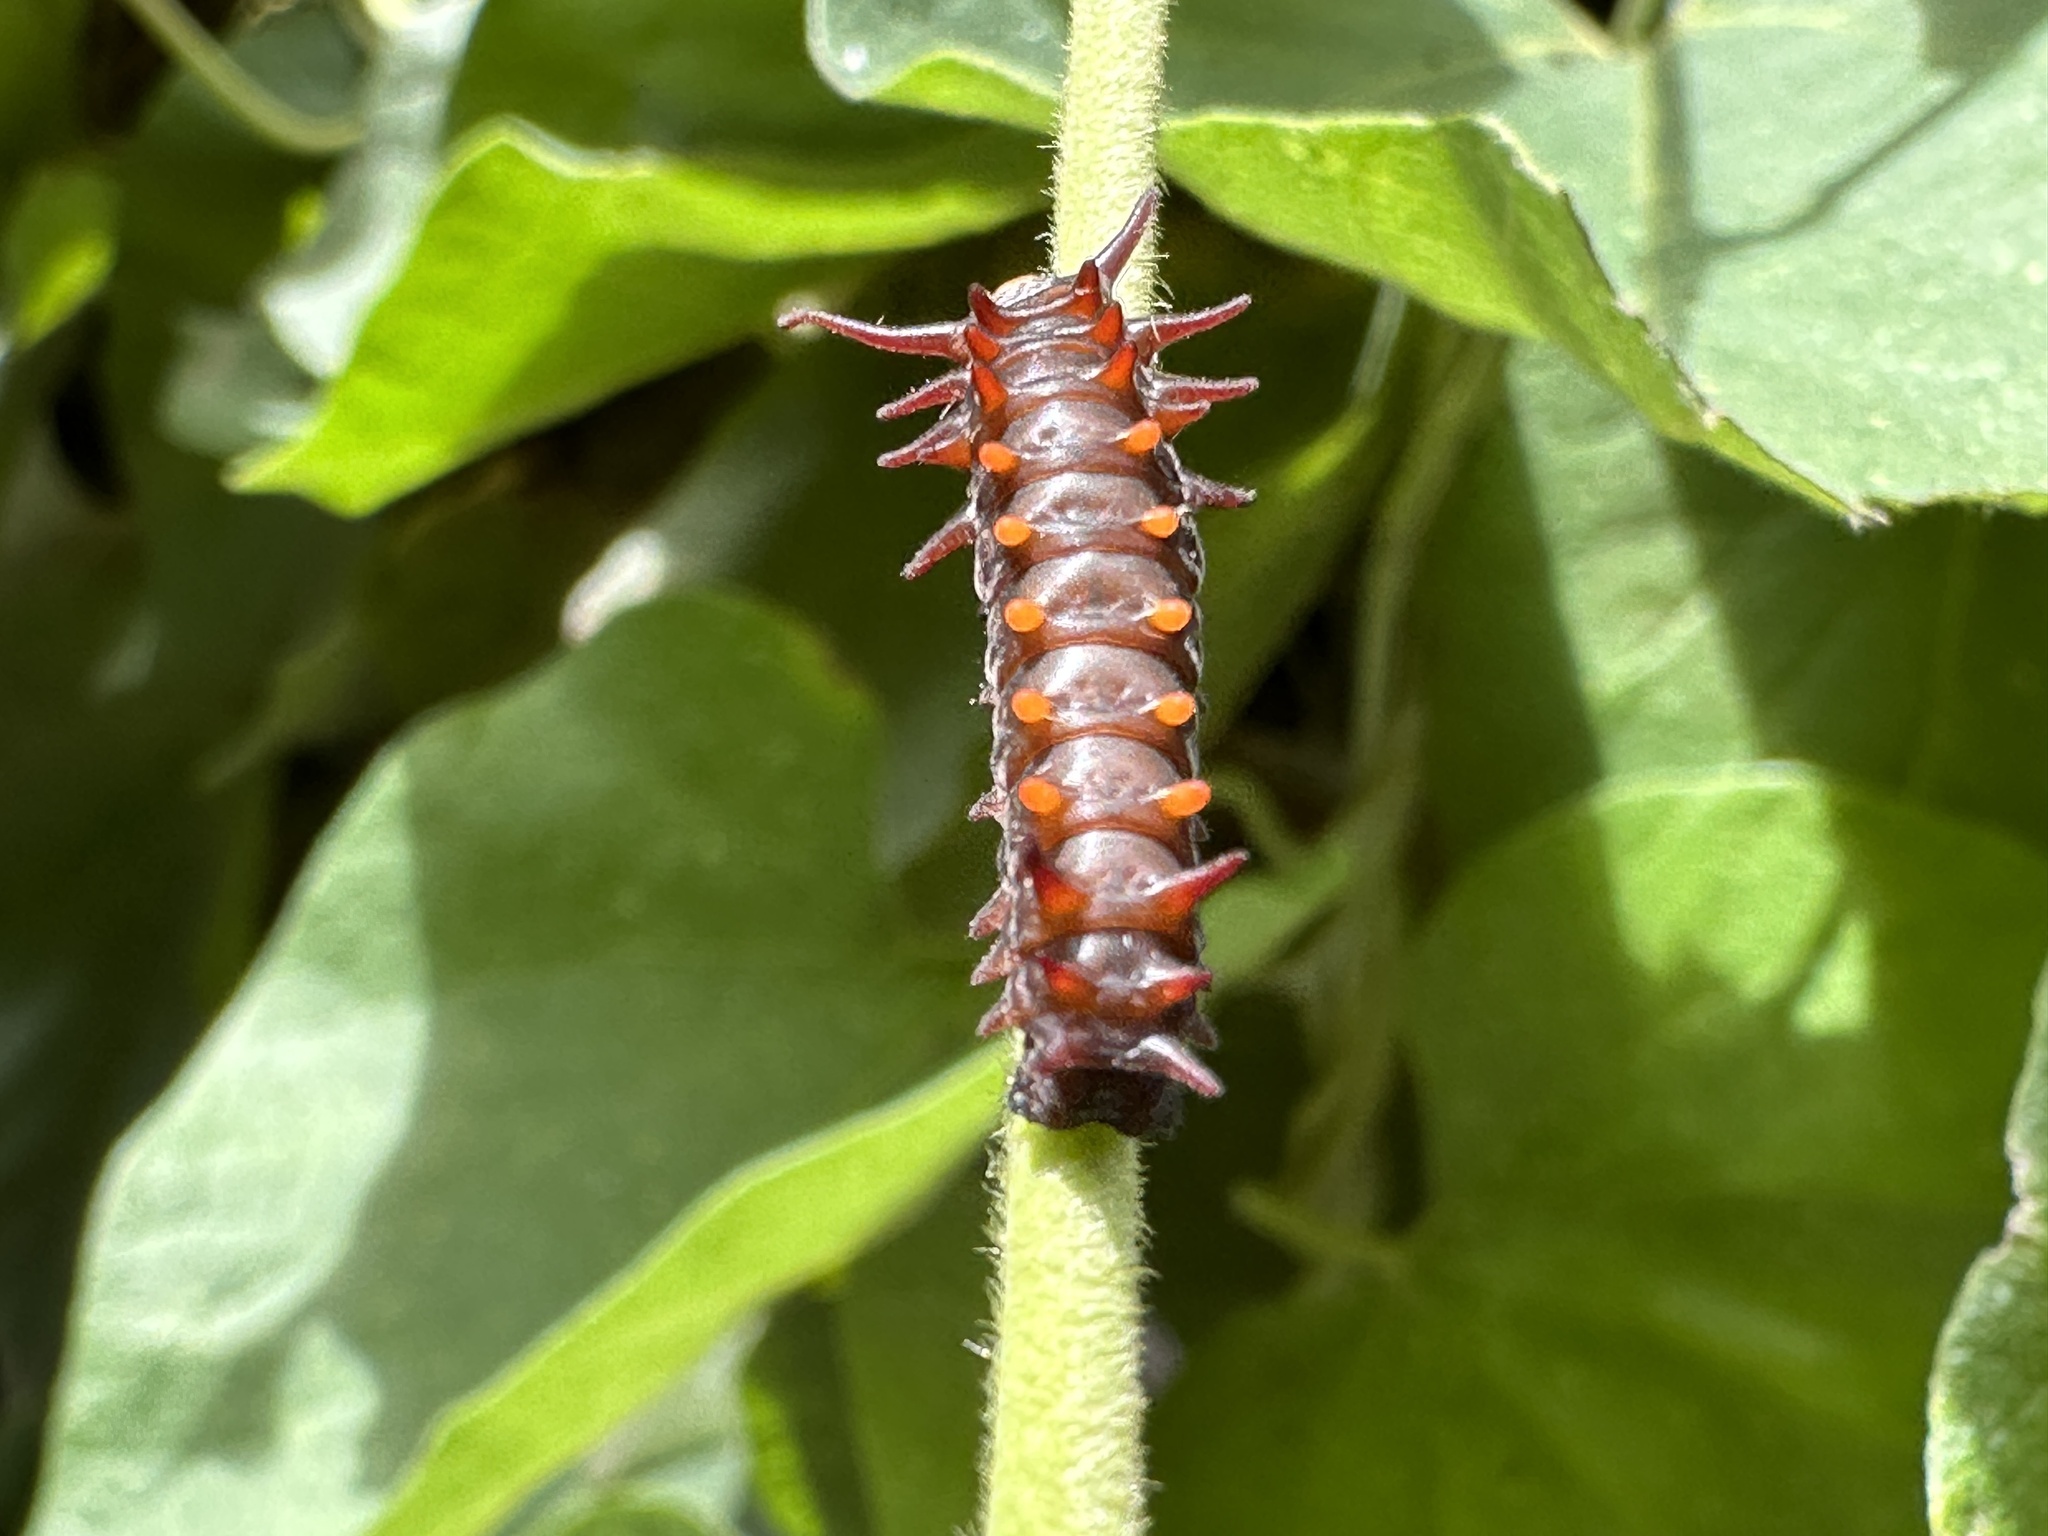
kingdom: Animalia
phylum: Arthropoda
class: Insecta
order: Lepidoptera
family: Papilionidae
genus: Battus
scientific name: Battus philenor
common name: Pipevine swallowtail
